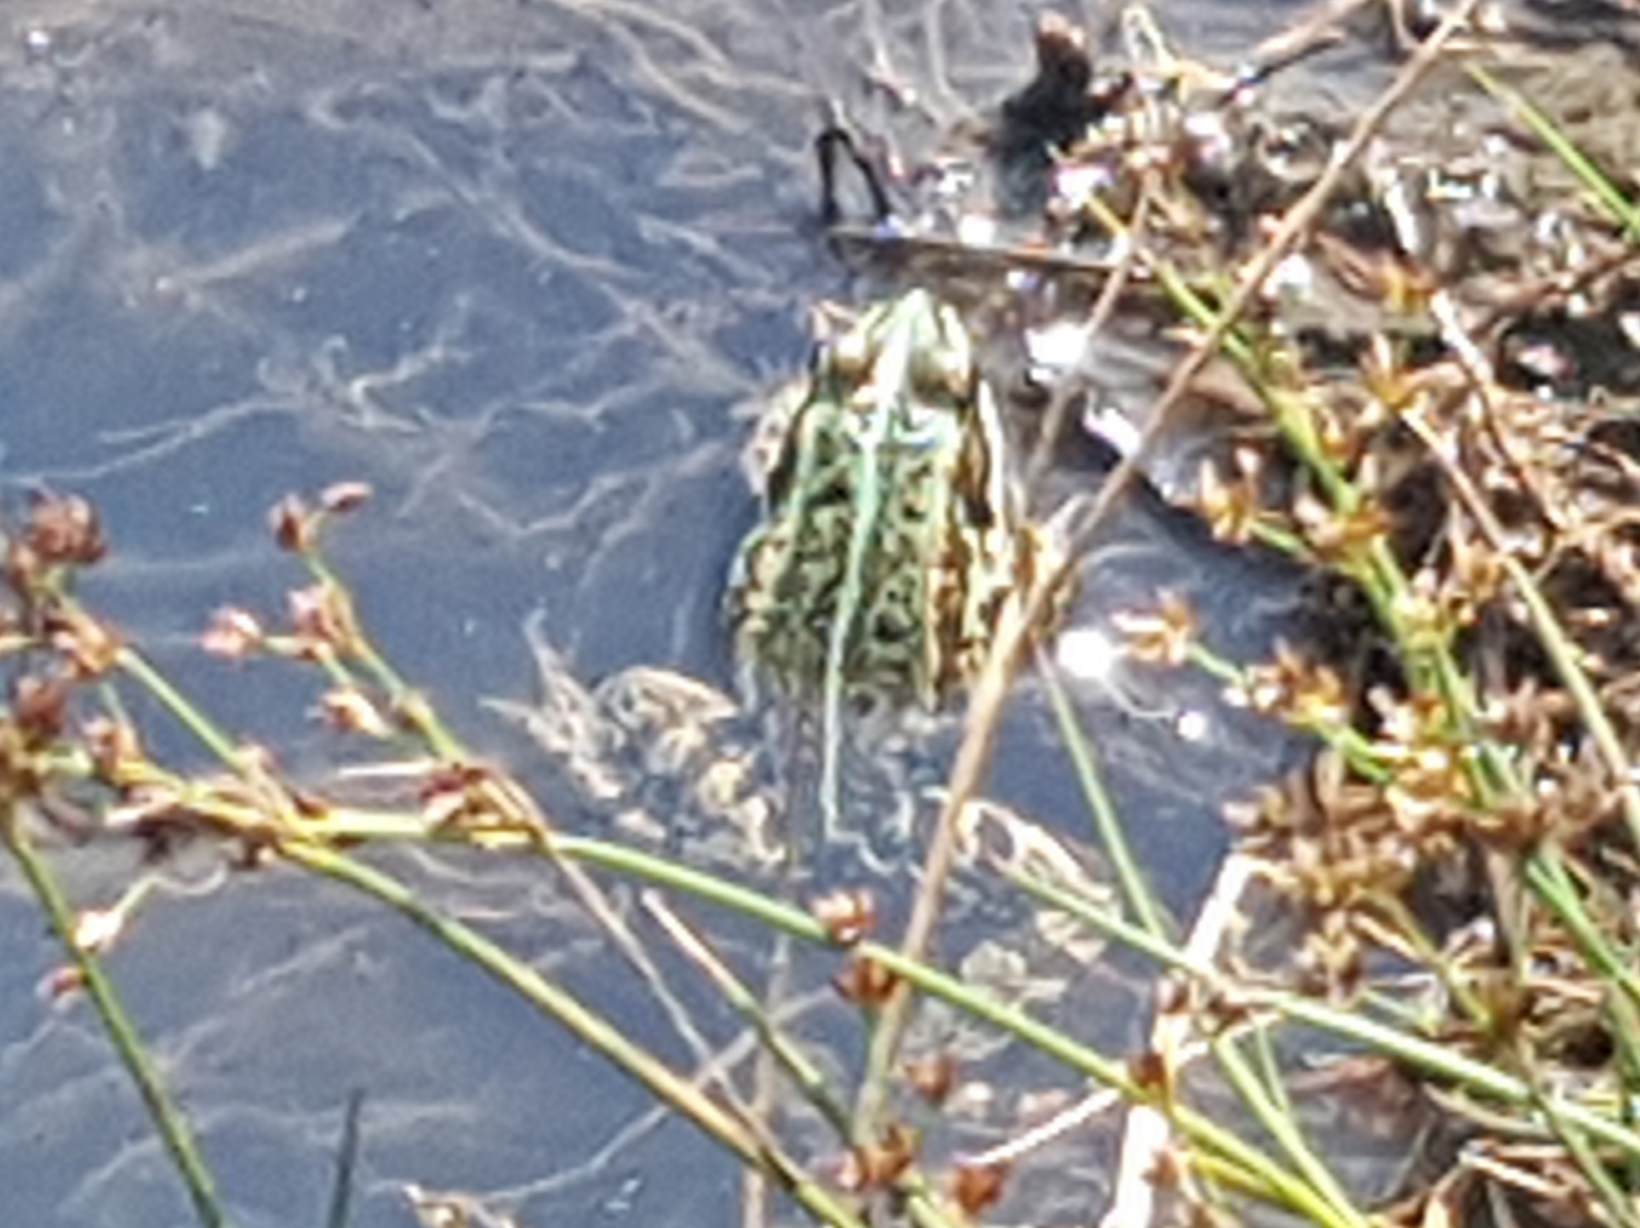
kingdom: Animalia
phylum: Chordata
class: Amphibia
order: Anura
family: Ranidae
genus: Pelophylax
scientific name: Pelophylax
